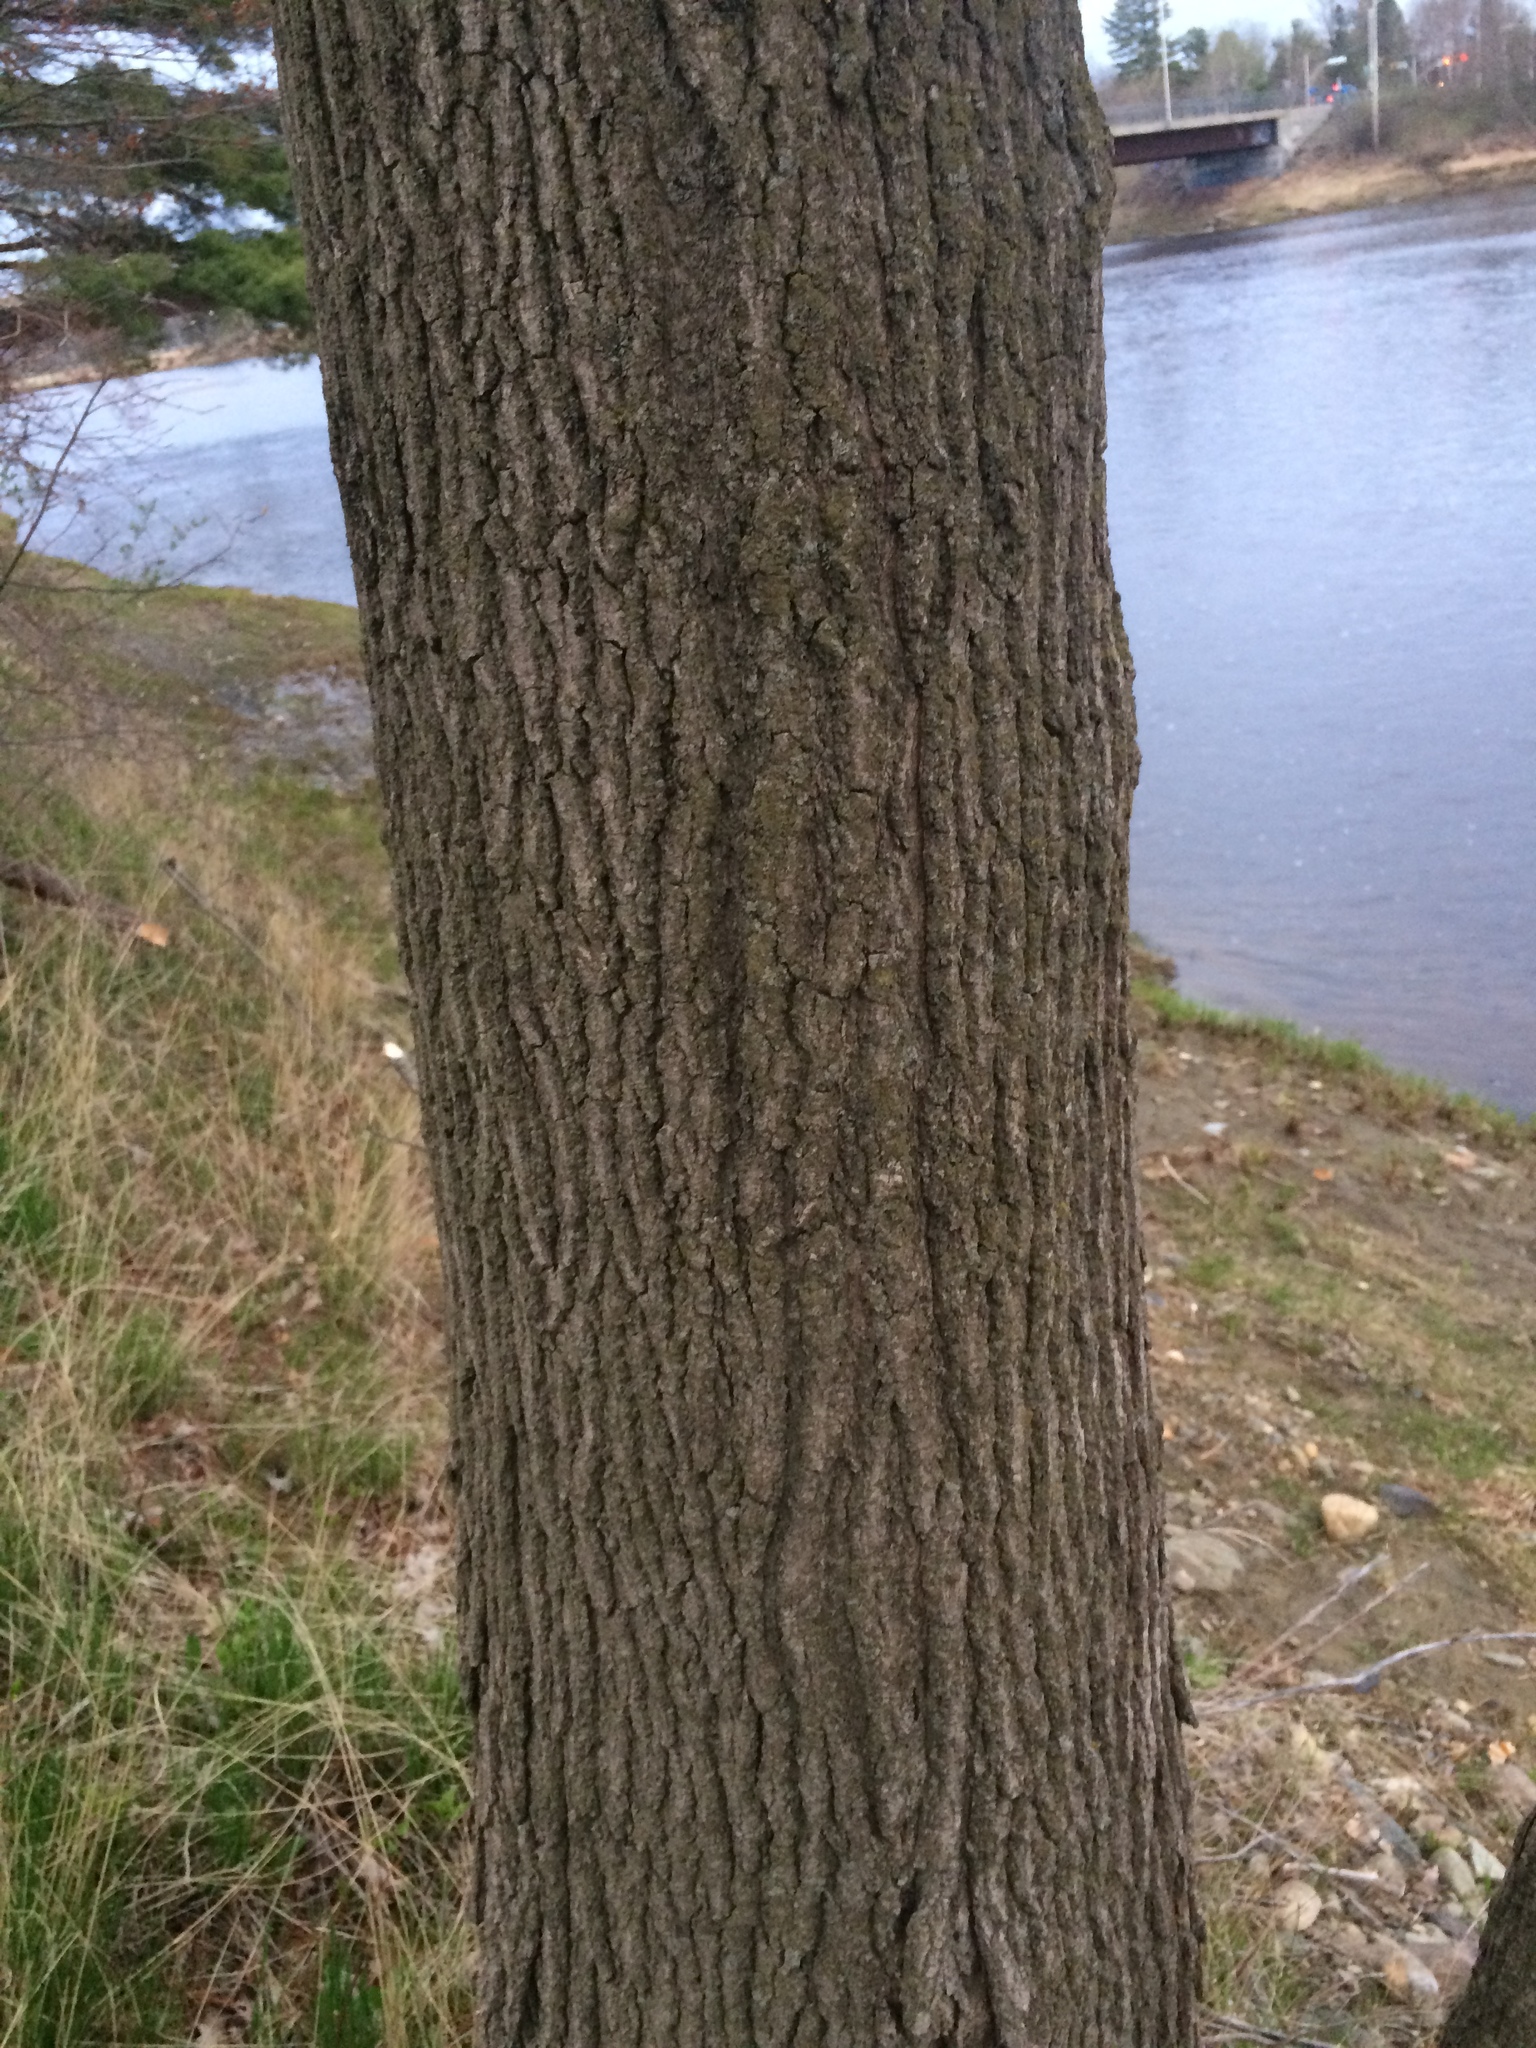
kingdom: Plantae
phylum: Tracheophyta
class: Magnoliopsida
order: Sapindales
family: Sapindaceae
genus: Acer
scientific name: Acer saccharum
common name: Sugar maple
